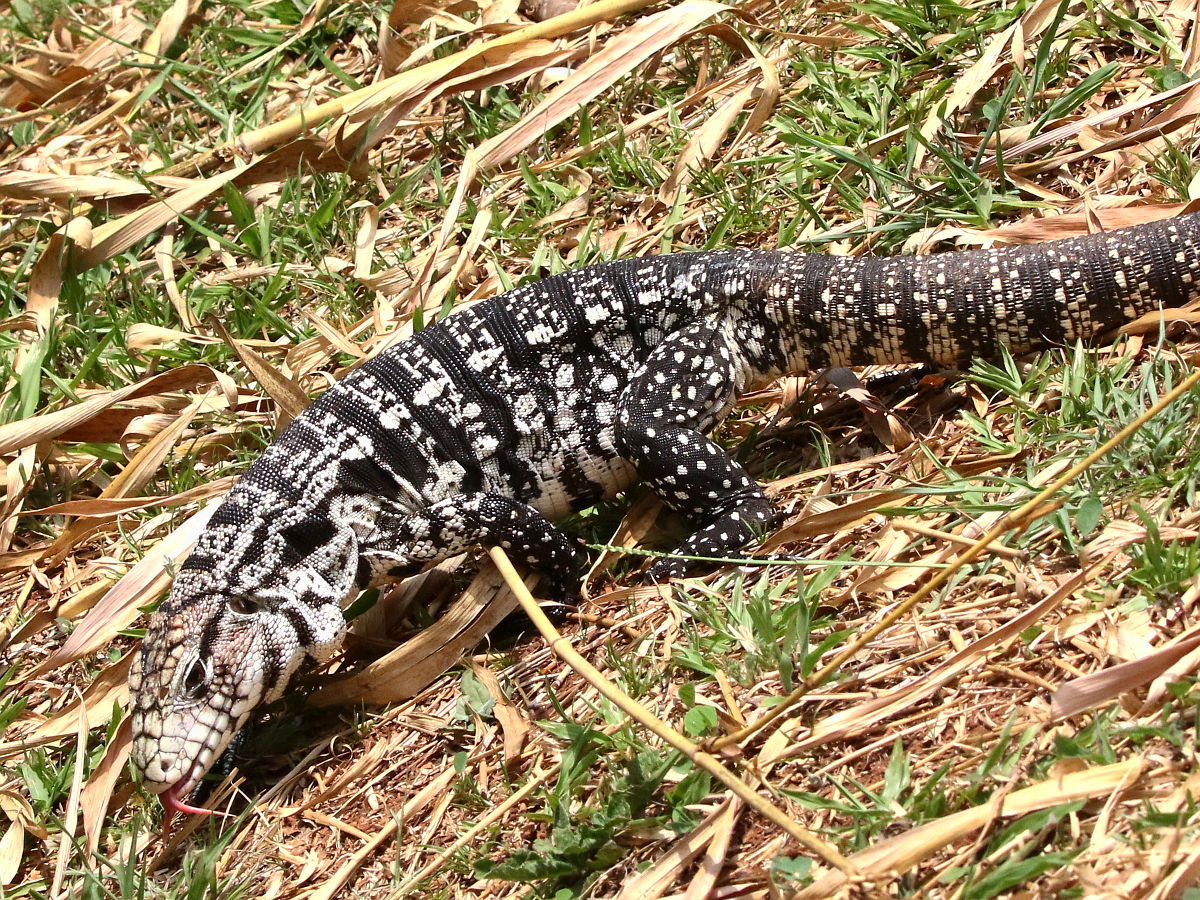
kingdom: Animalia
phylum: Chordata
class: Squamata
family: Teiidae
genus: Salvator
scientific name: Salvator merianae
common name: Argentine black and white tegu
